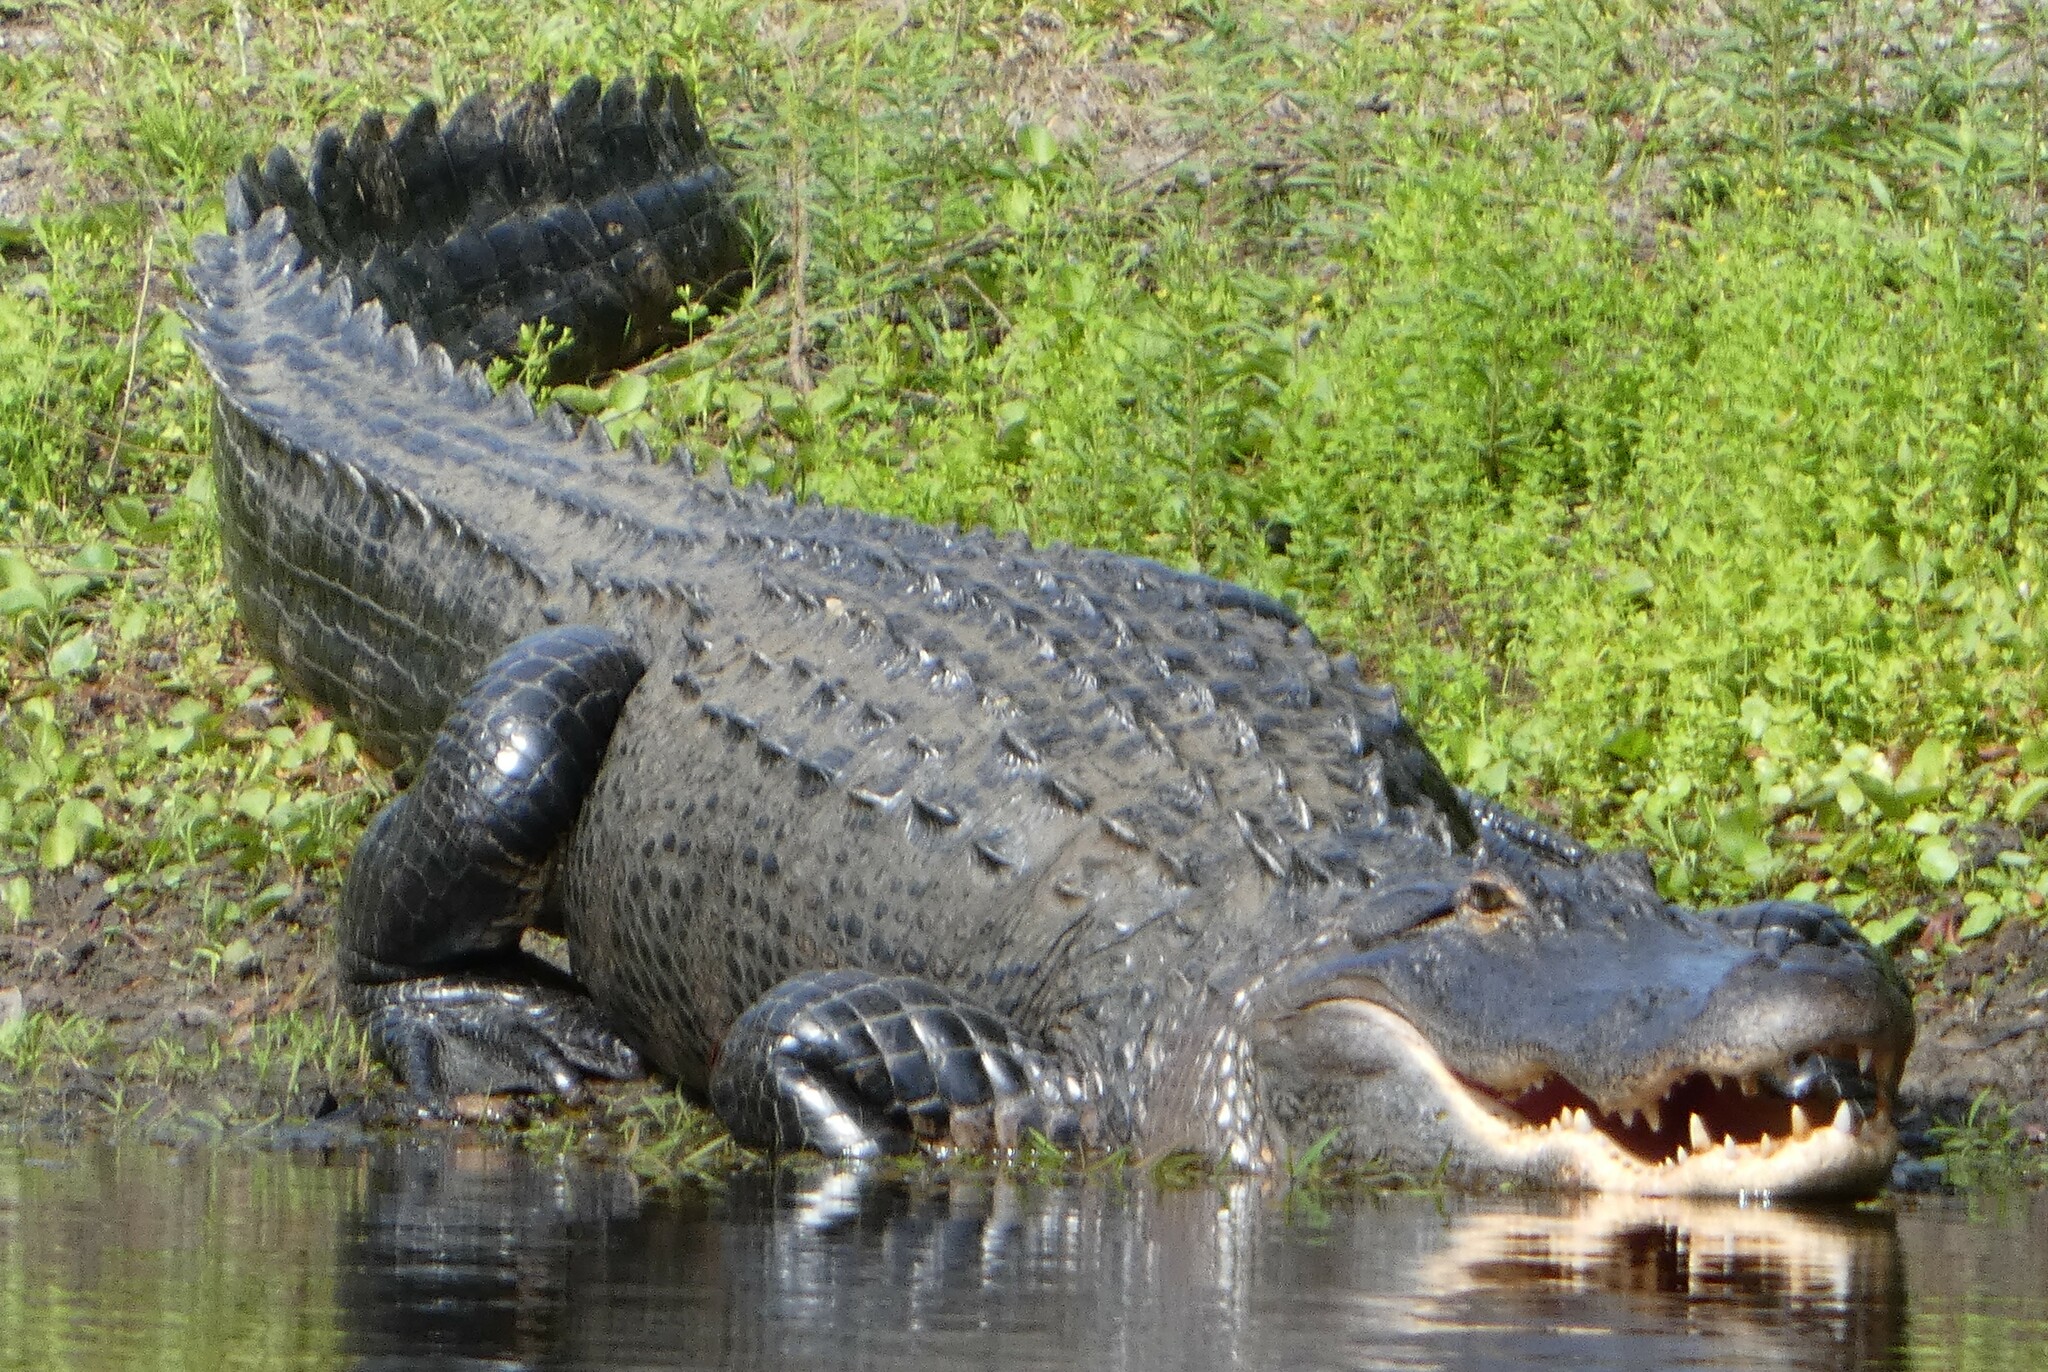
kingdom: Animalia
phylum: Chordata
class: Crocodylia
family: Alligatoridae
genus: Alligator
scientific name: Alligator mississippiensis
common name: American alligator
